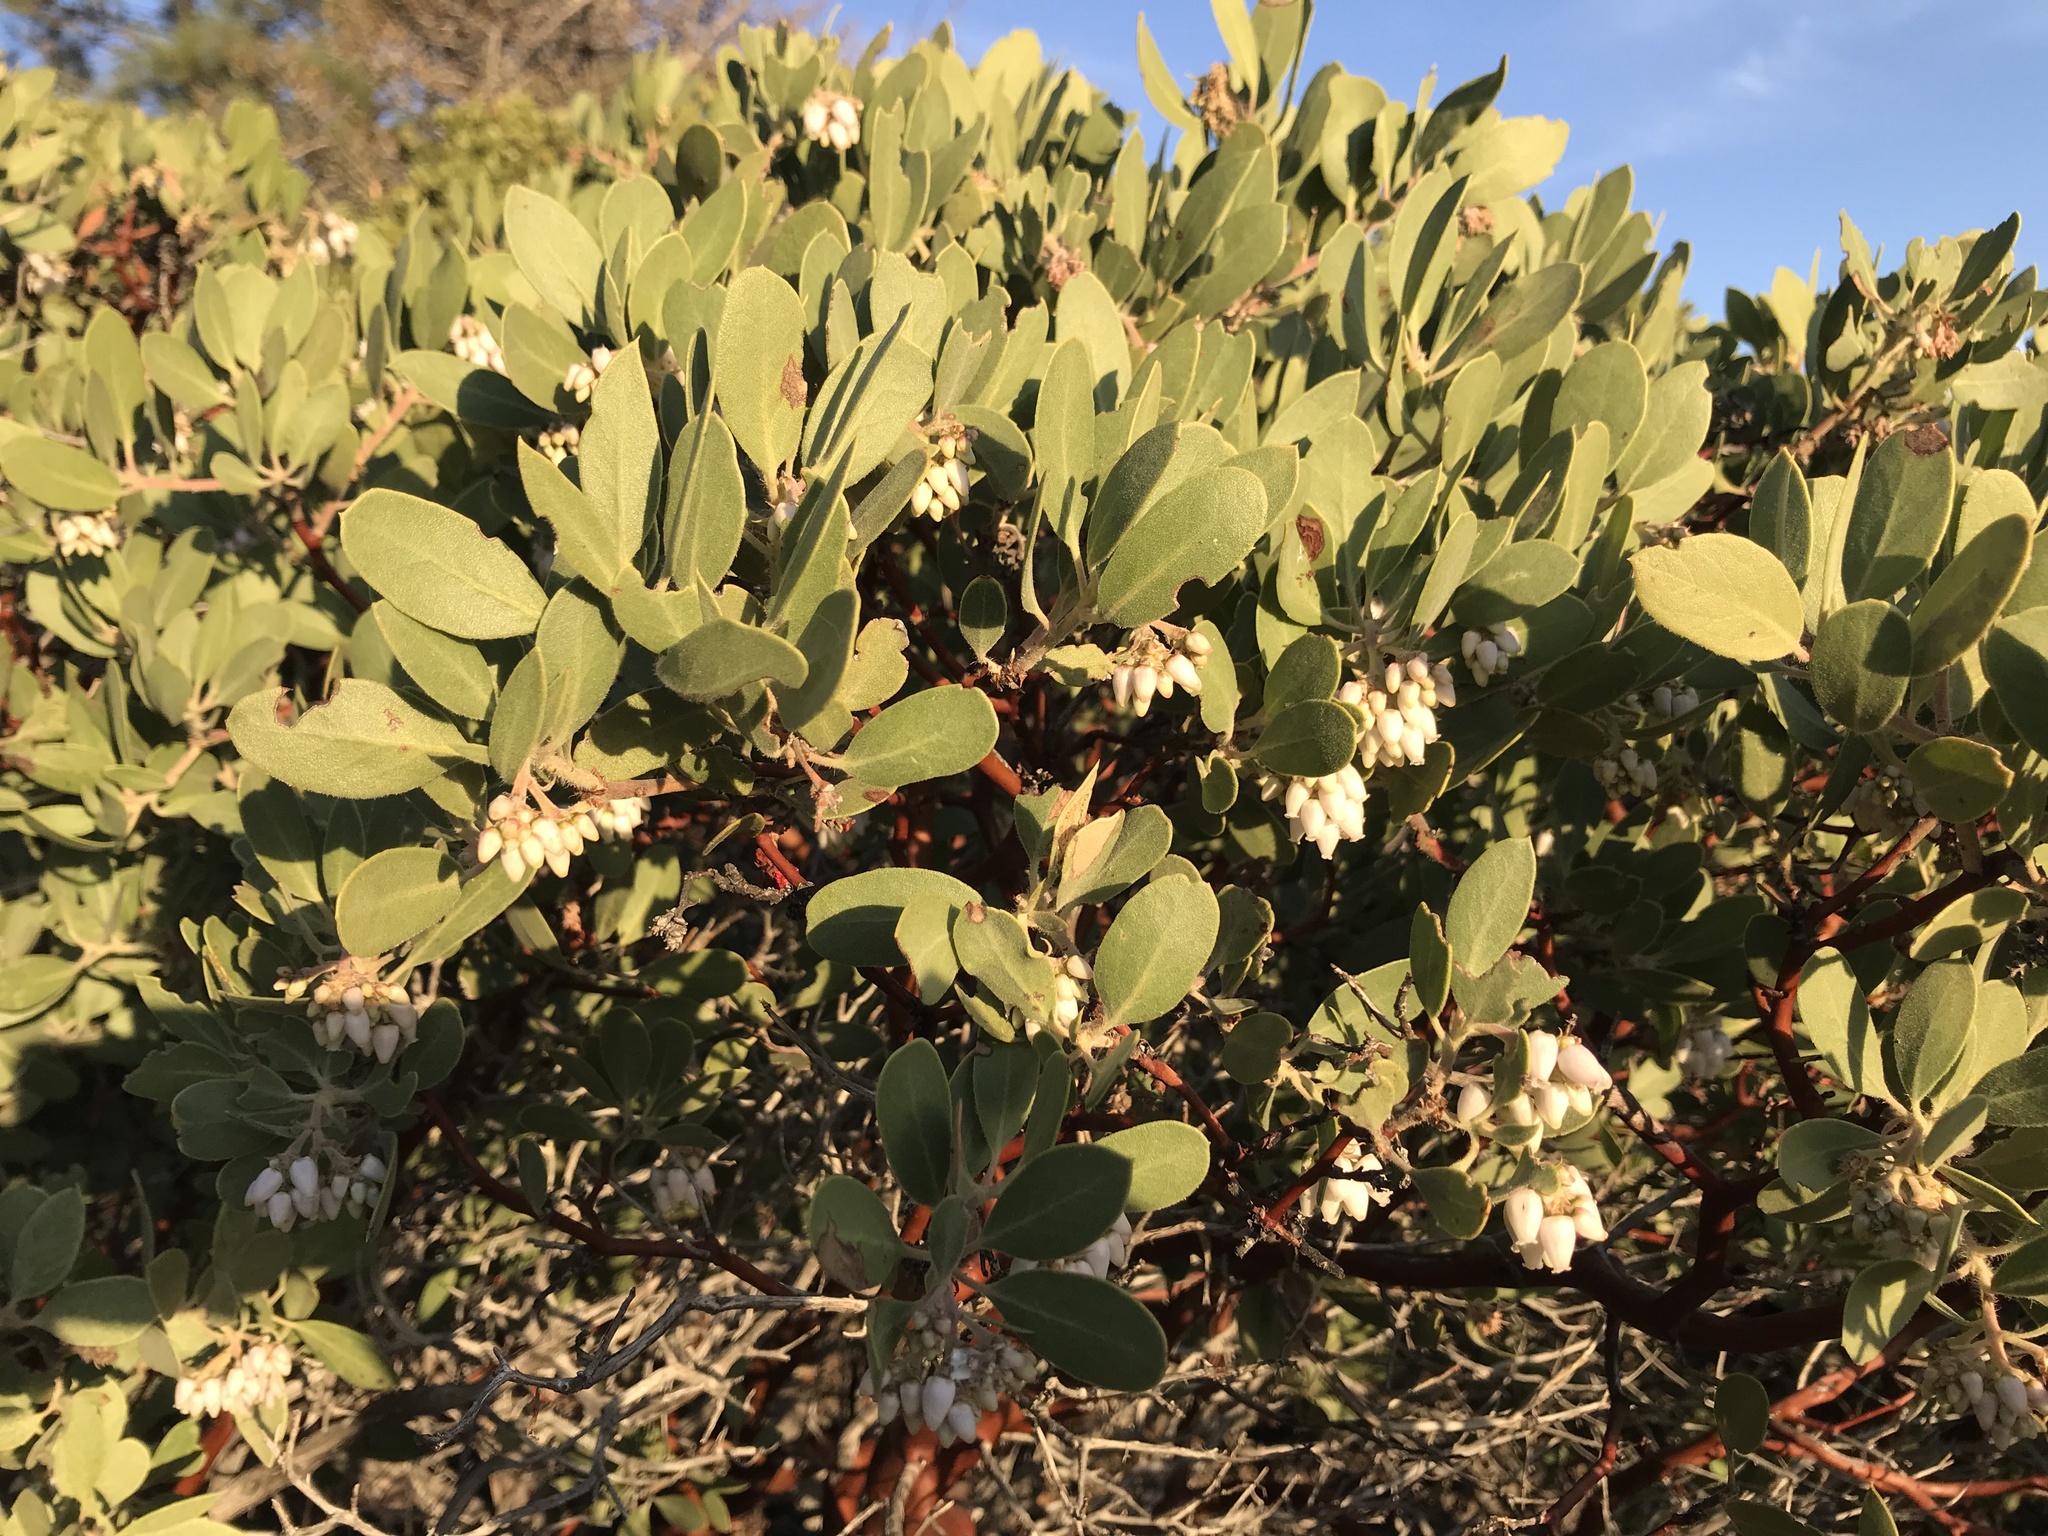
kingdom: Plantae
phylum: Tracheophyta
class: Magnoliopsida
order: Ericales
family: Ericaceae
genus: Arctostaphylos
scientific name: Arctostaphylos glandulosa
